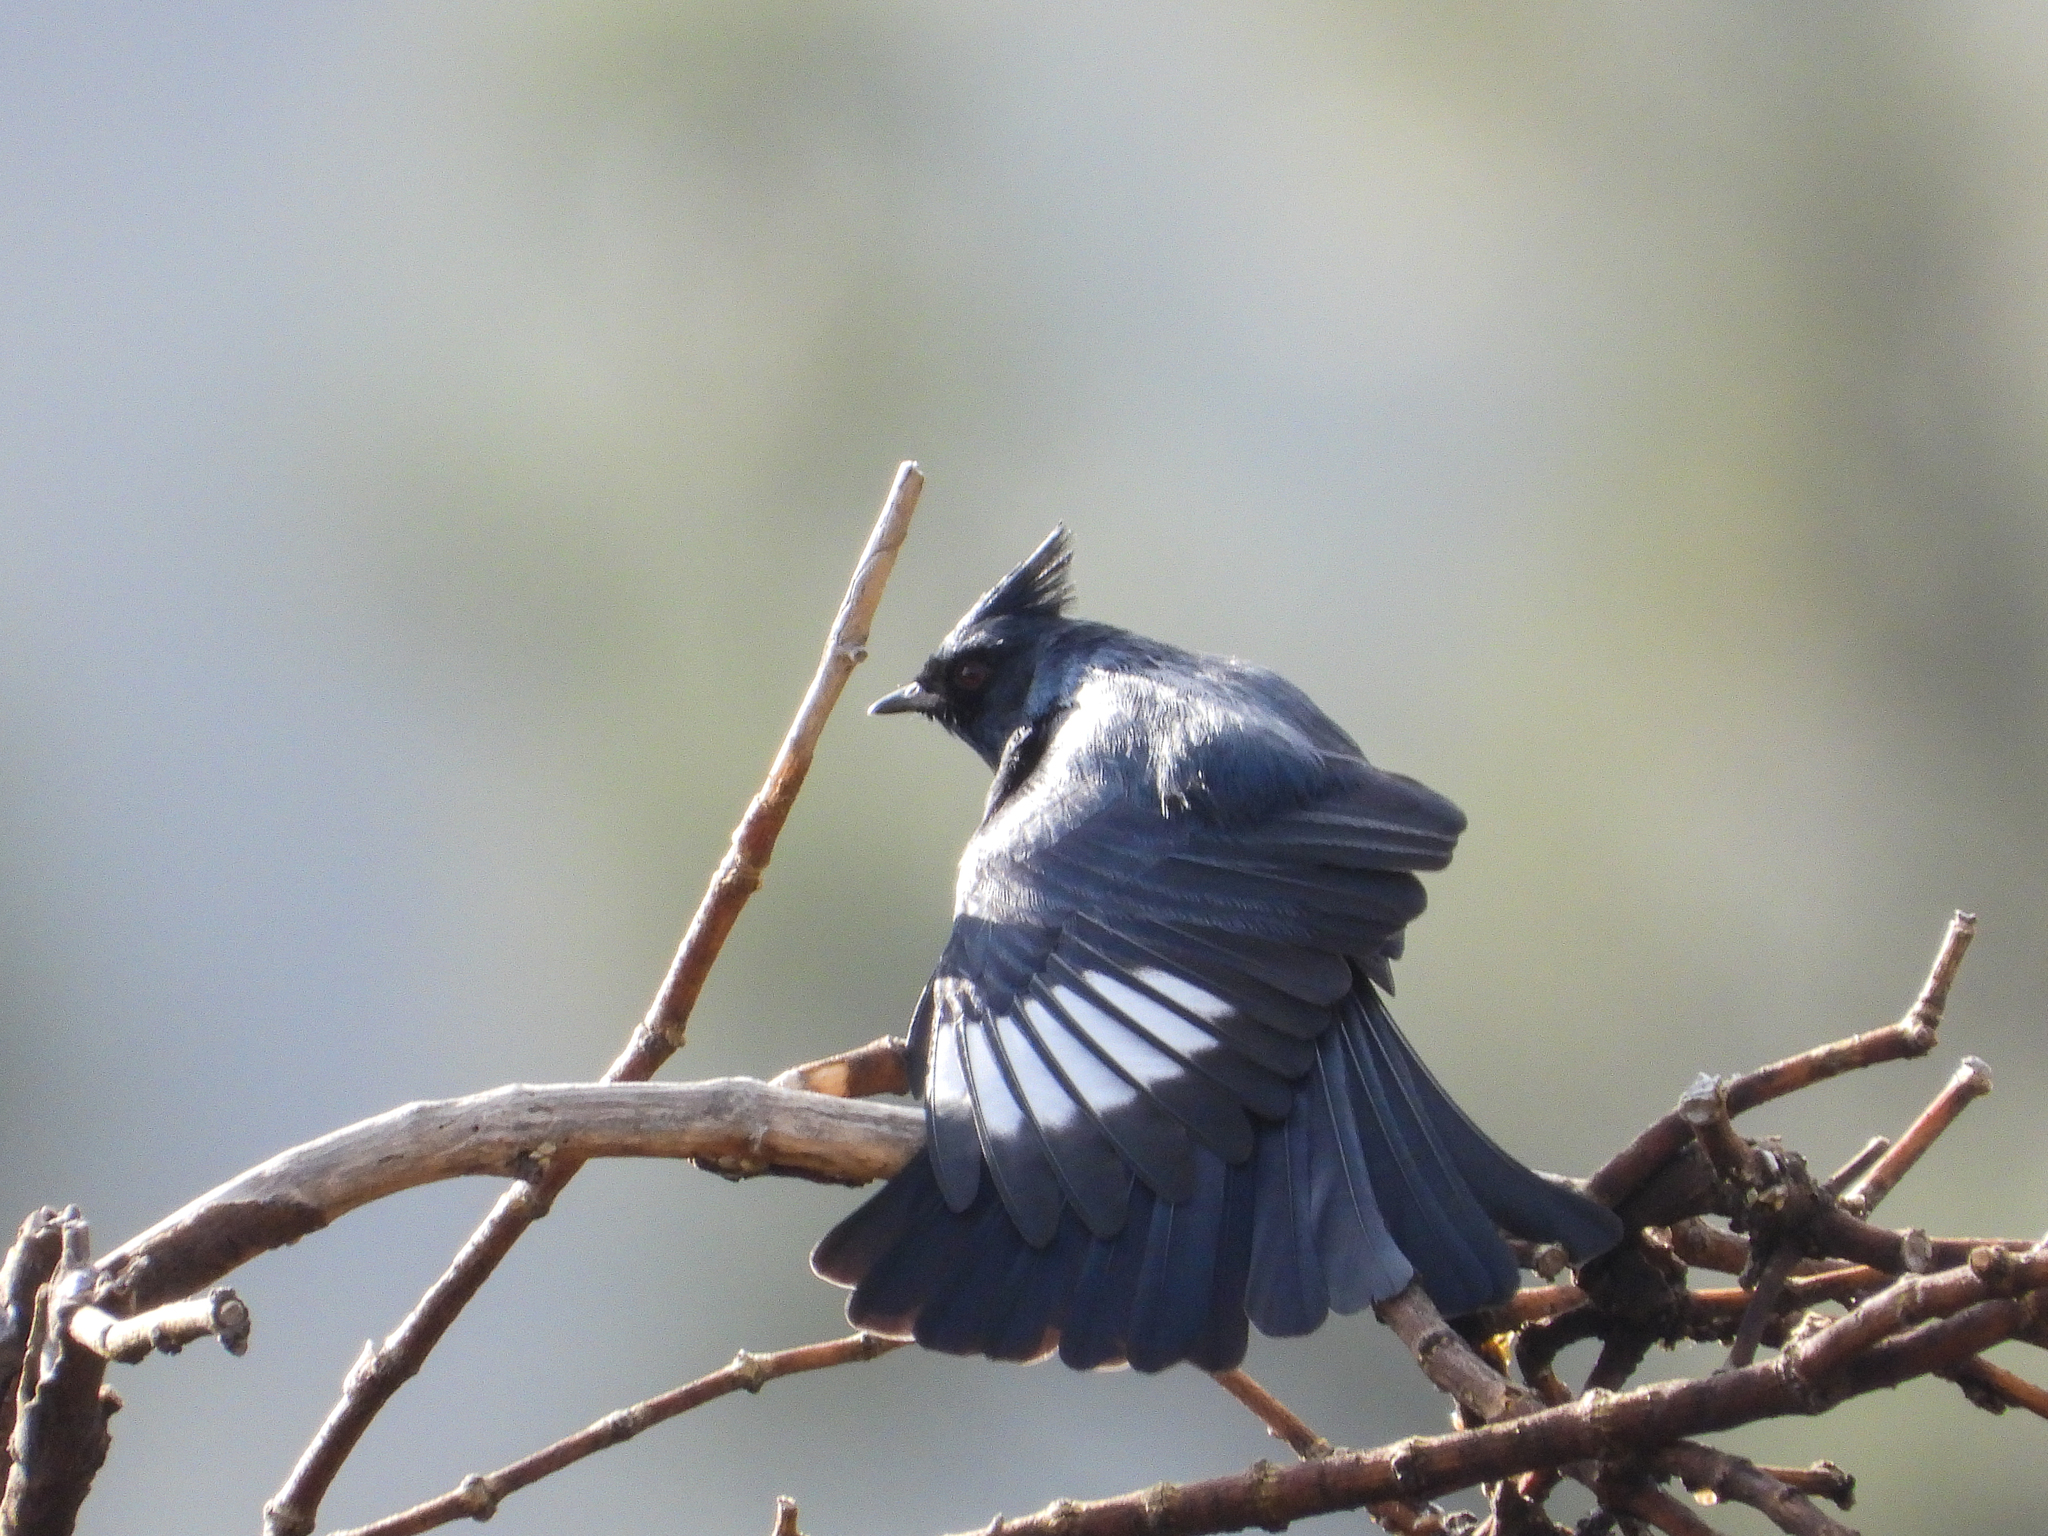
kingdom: Animalia
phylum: Chordata
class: Aves
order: Passeriformes
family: Ptilogonatidae
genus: Phainopepla
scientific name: Phainopepla nitens
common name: Phainopepla
